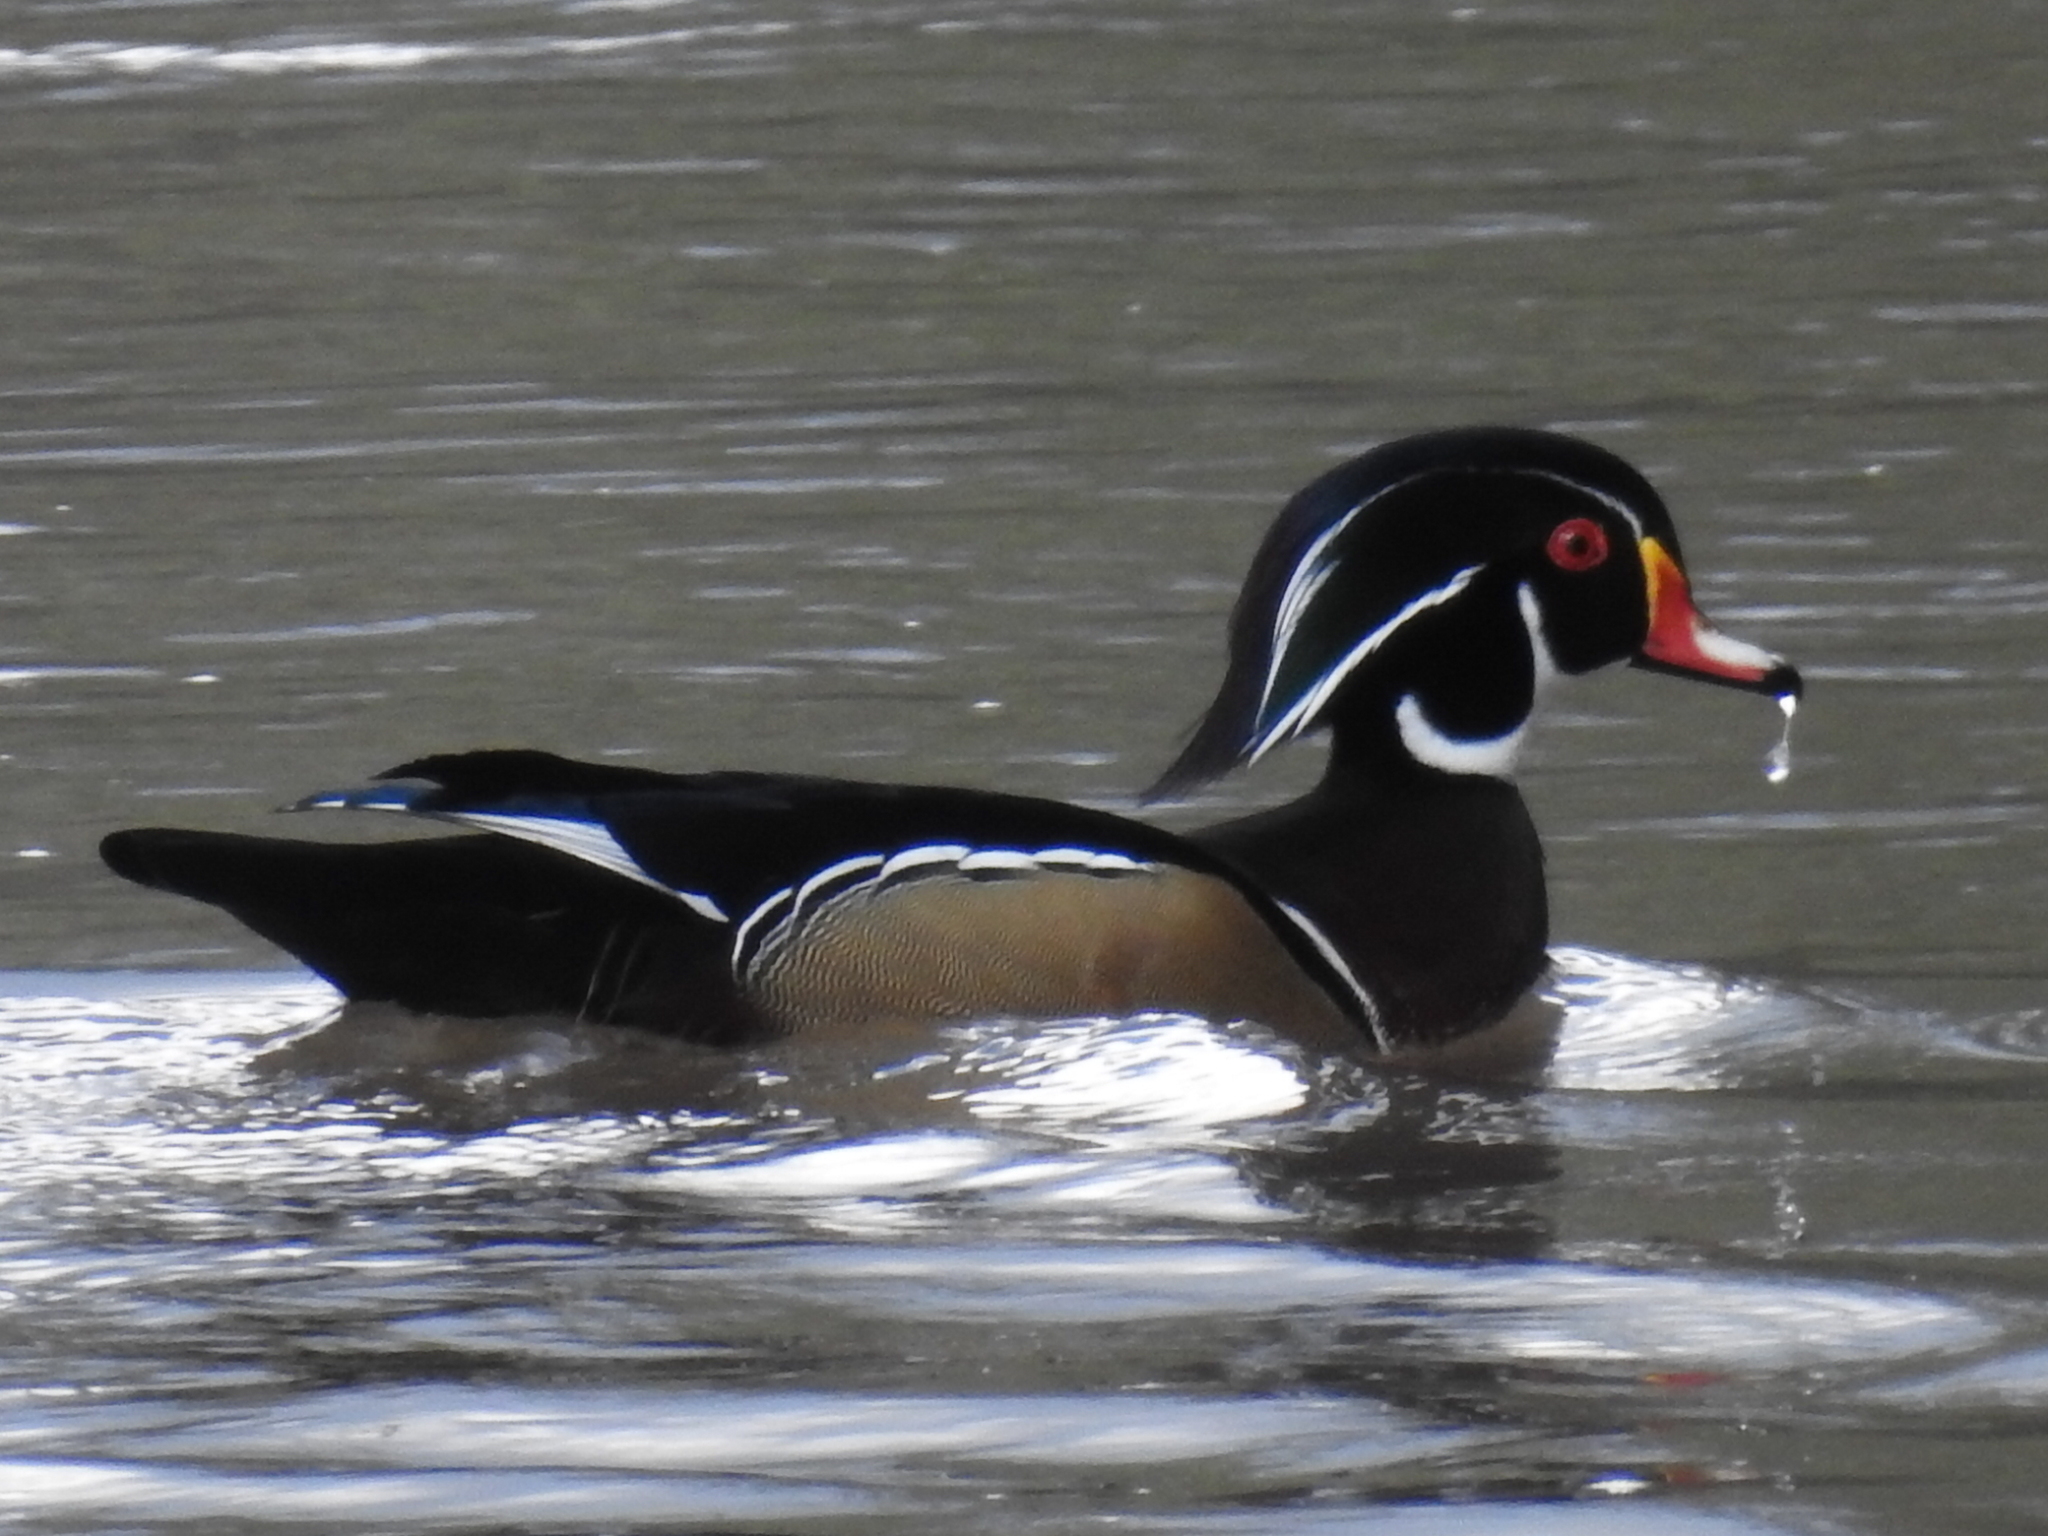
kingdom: Animalia
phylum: Chordata
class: Aves
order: Anseriformes
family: Anatidae
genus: Aix
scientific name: Aix sponsa
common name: Wood duck
